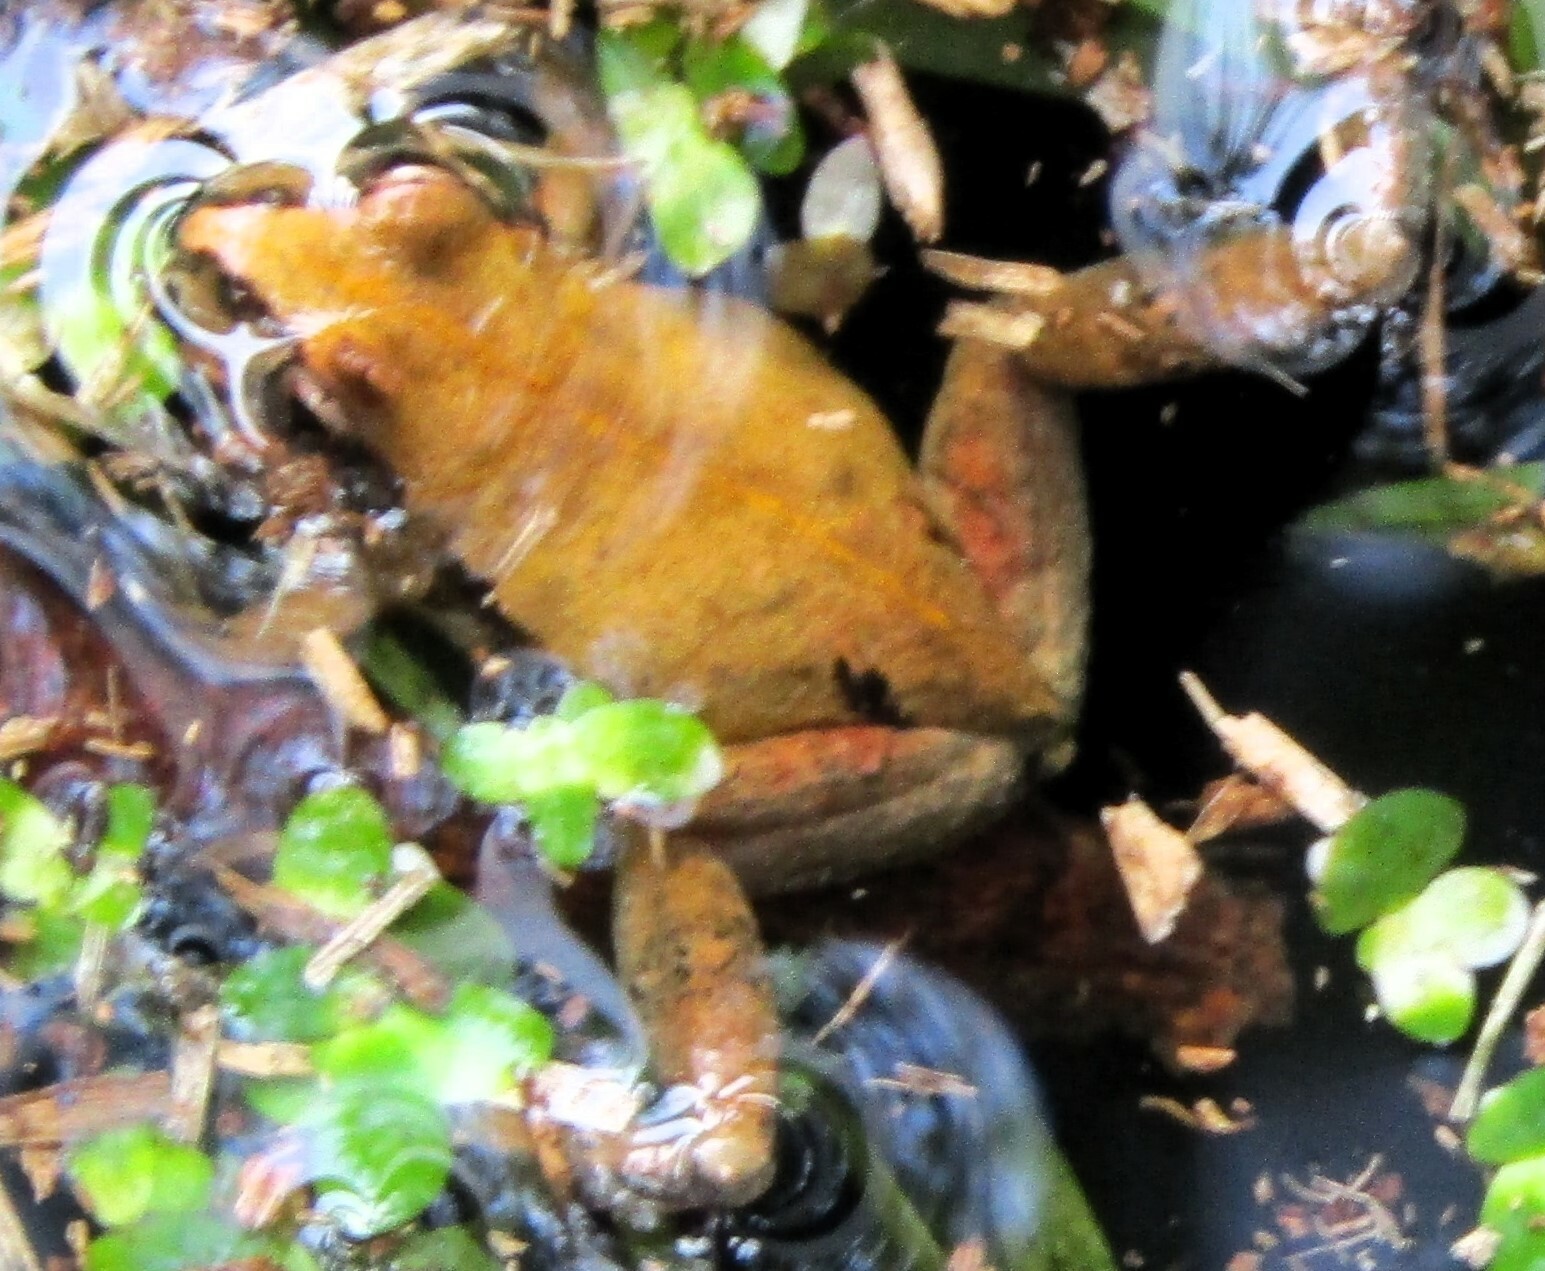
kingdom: Animalia
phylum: Chordata
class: Amphibia
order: Anura
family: Pelodryadidae
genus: Litoria
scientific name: Litoria adelaidensis
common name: Slender tree frog
